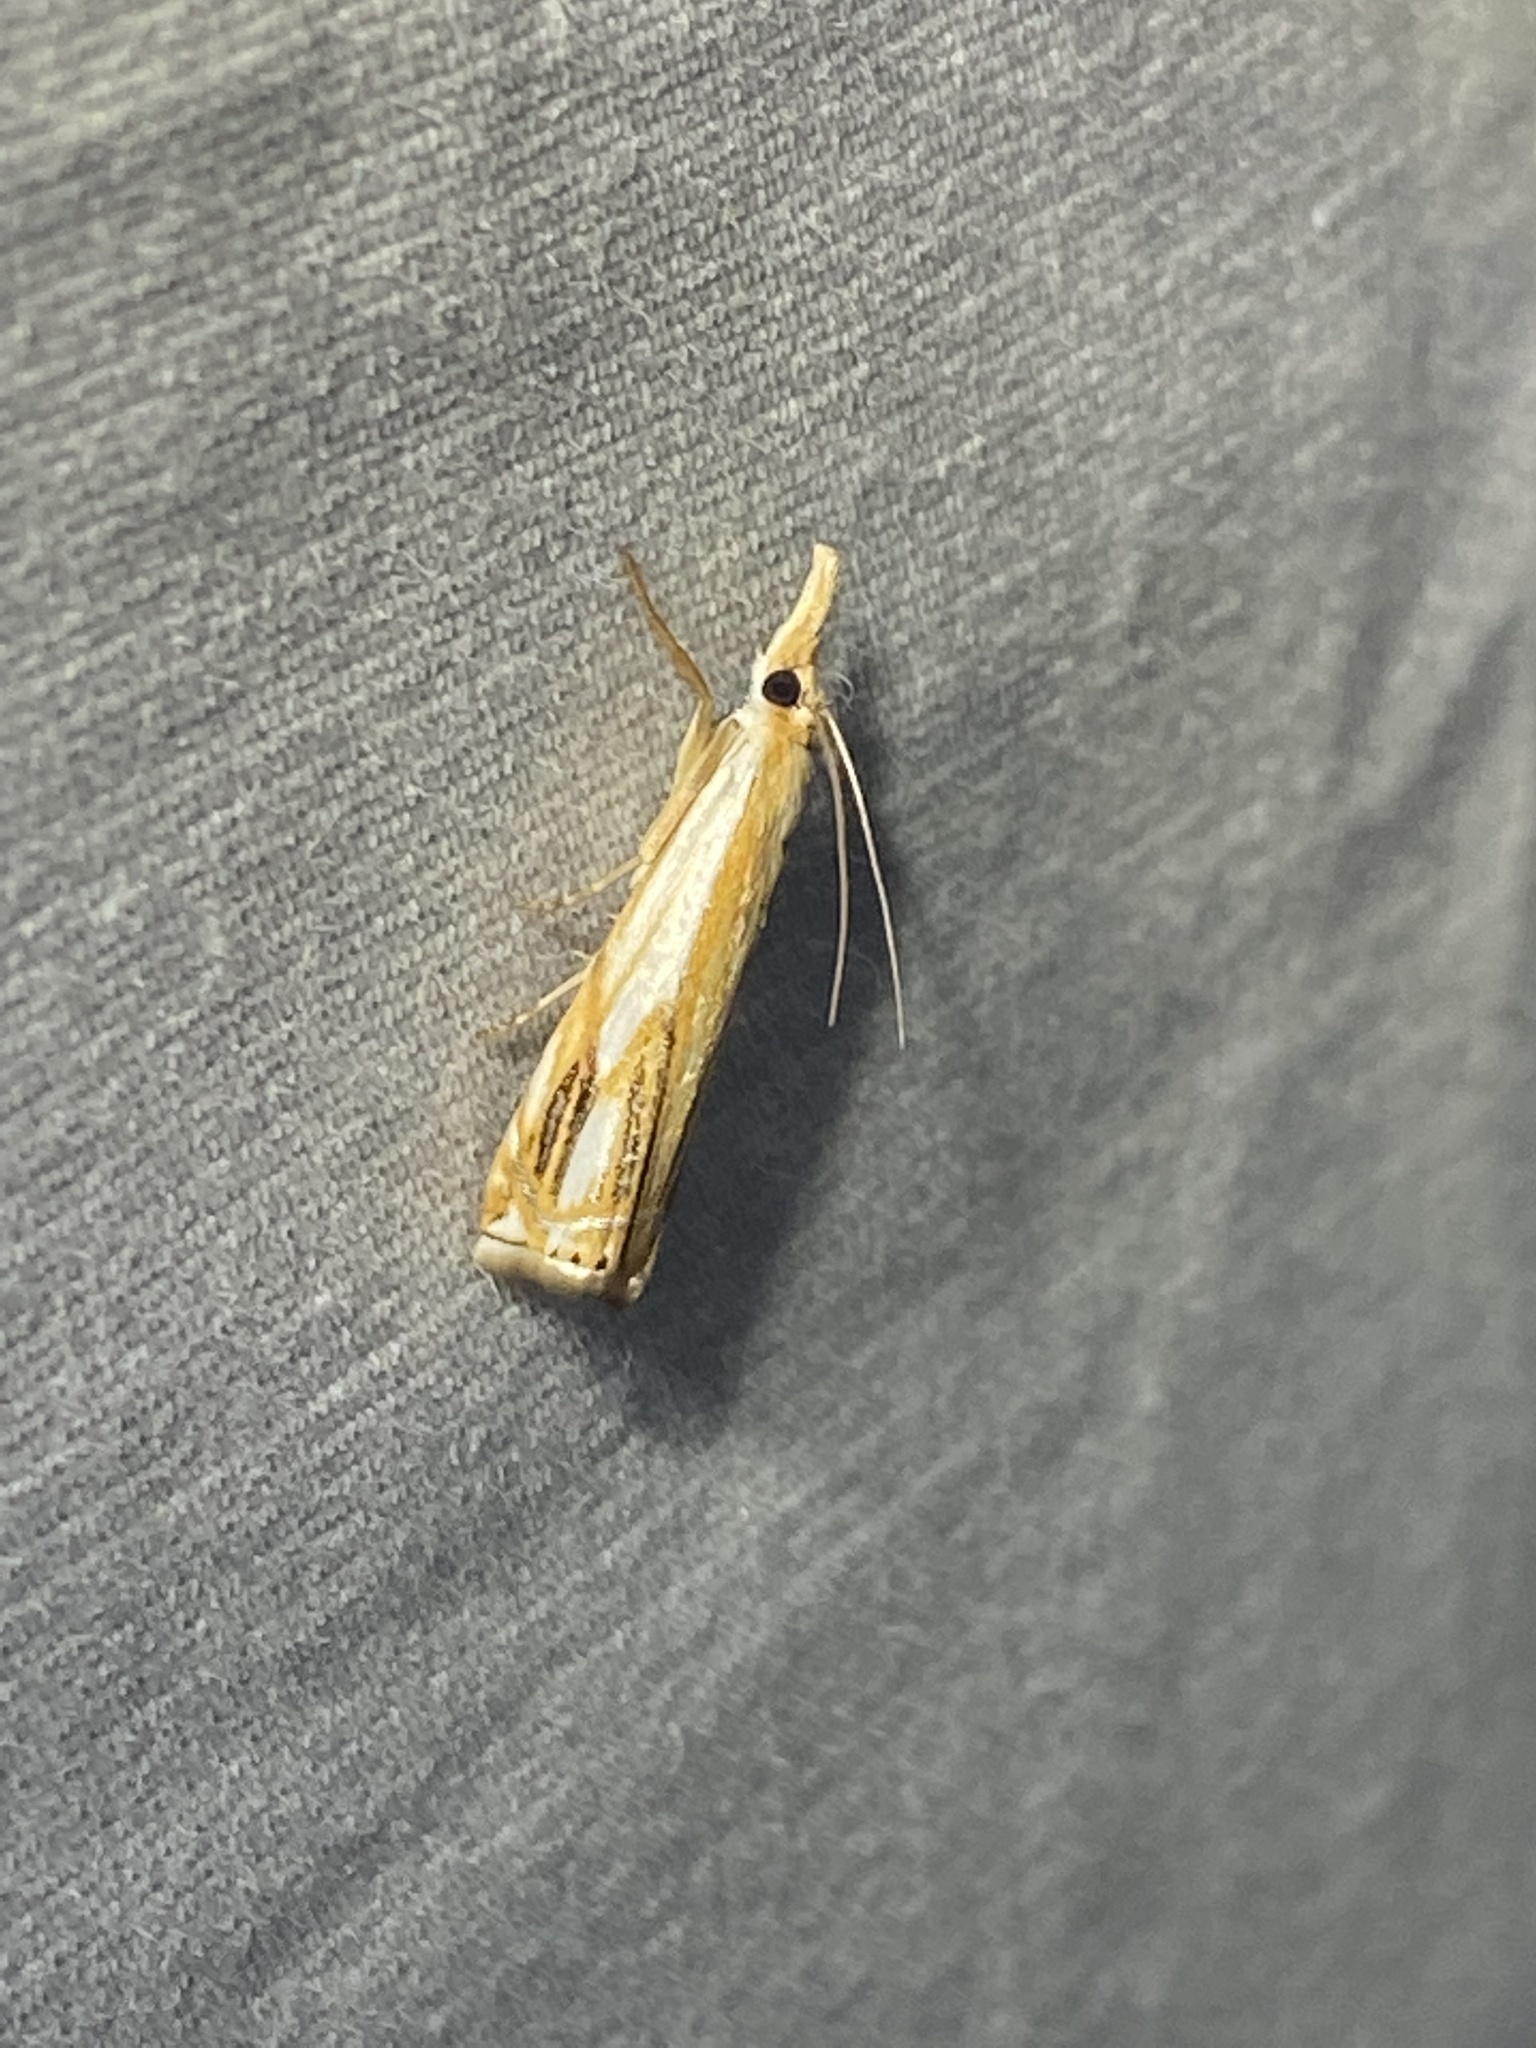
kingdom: Animalia
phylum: Arthropoda
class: Insecta
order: Lepidoptera
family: Crambidae
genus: Crambus
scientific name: Crambus agitatellus
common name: Double-banded grass-veneer
